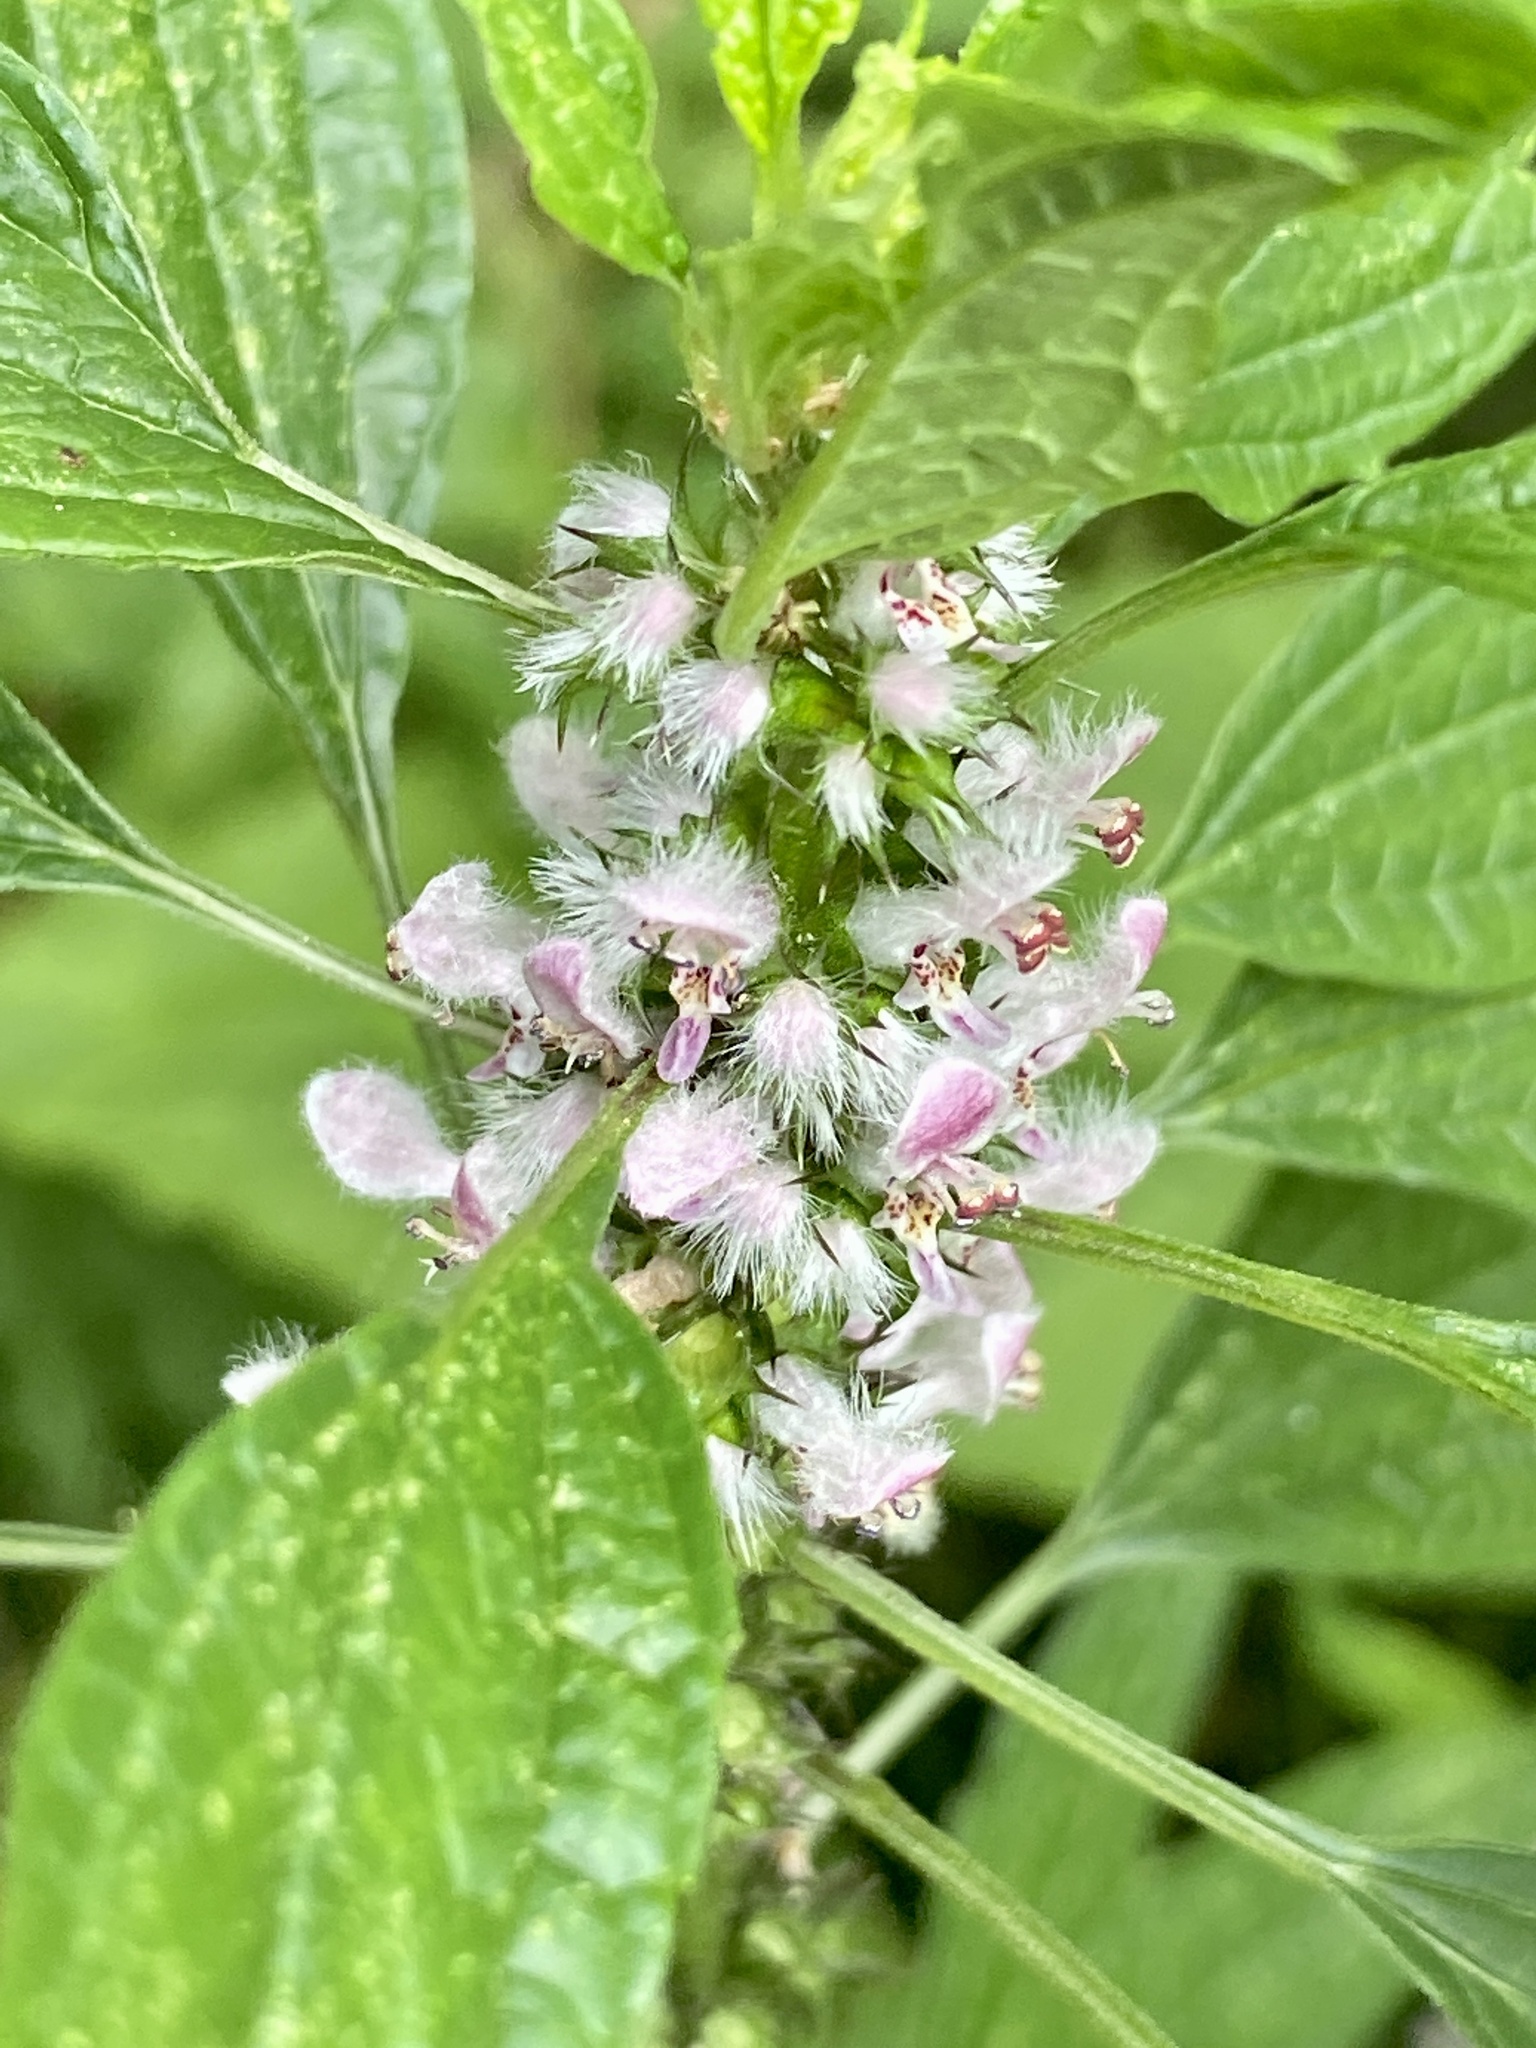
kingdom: Plantae
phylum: Tracheophyta
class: Magnoliopsida
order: Lamiales
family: Lamiaceae
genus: Leonurus
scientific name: Leonurus cardiaca
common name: Motherwort
